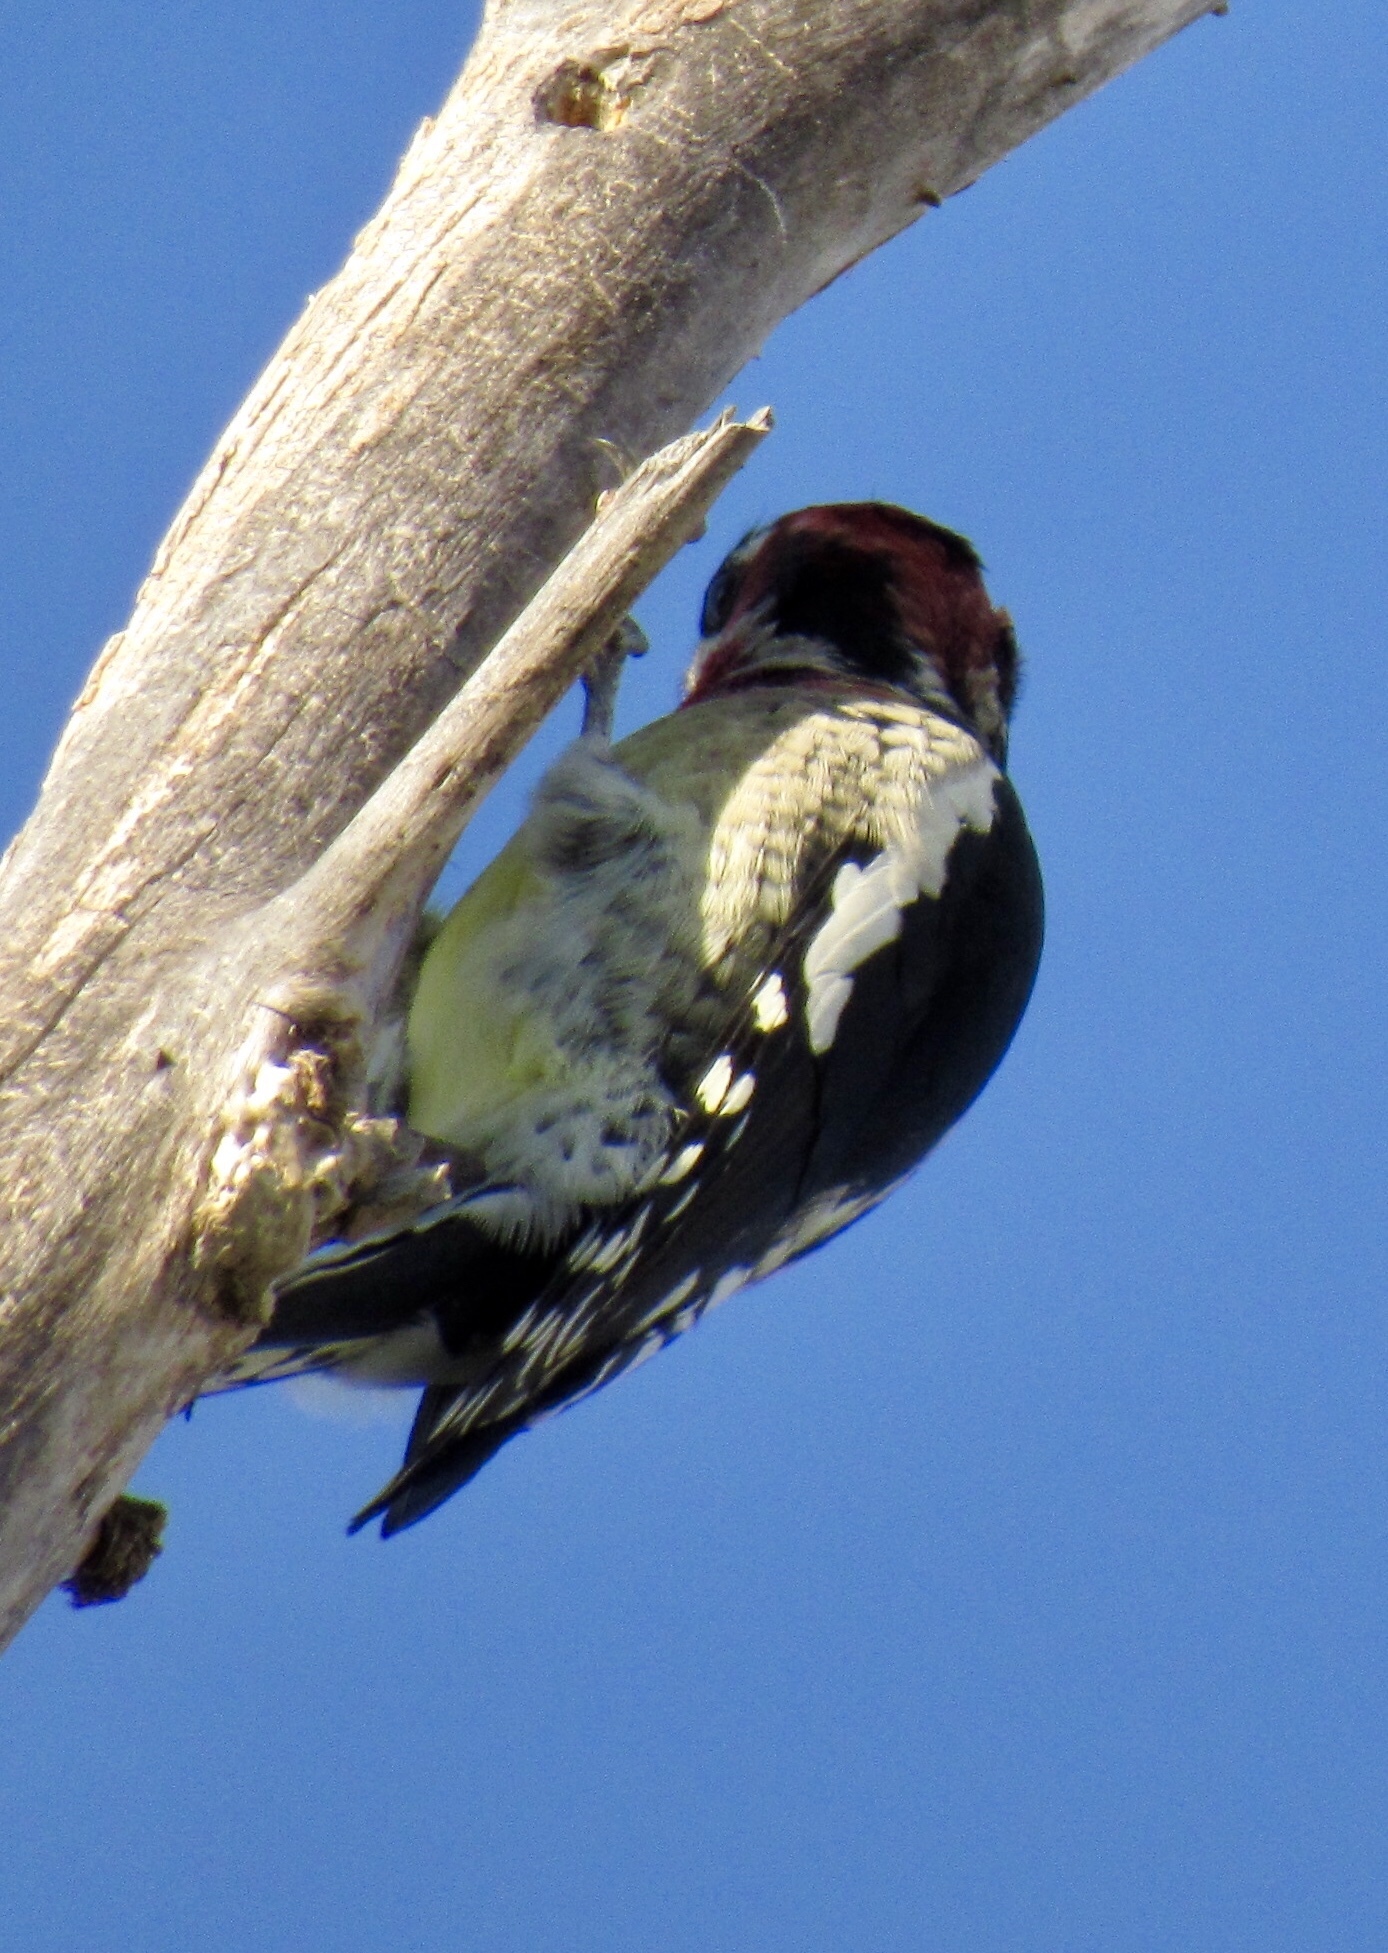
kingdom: Animalia
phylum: Chordata
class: Aves
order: Piciformes
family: Picidae
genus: Sphyrapicus
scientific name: Sphyrapicus nuchalis
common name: Red-naped sapsucker
